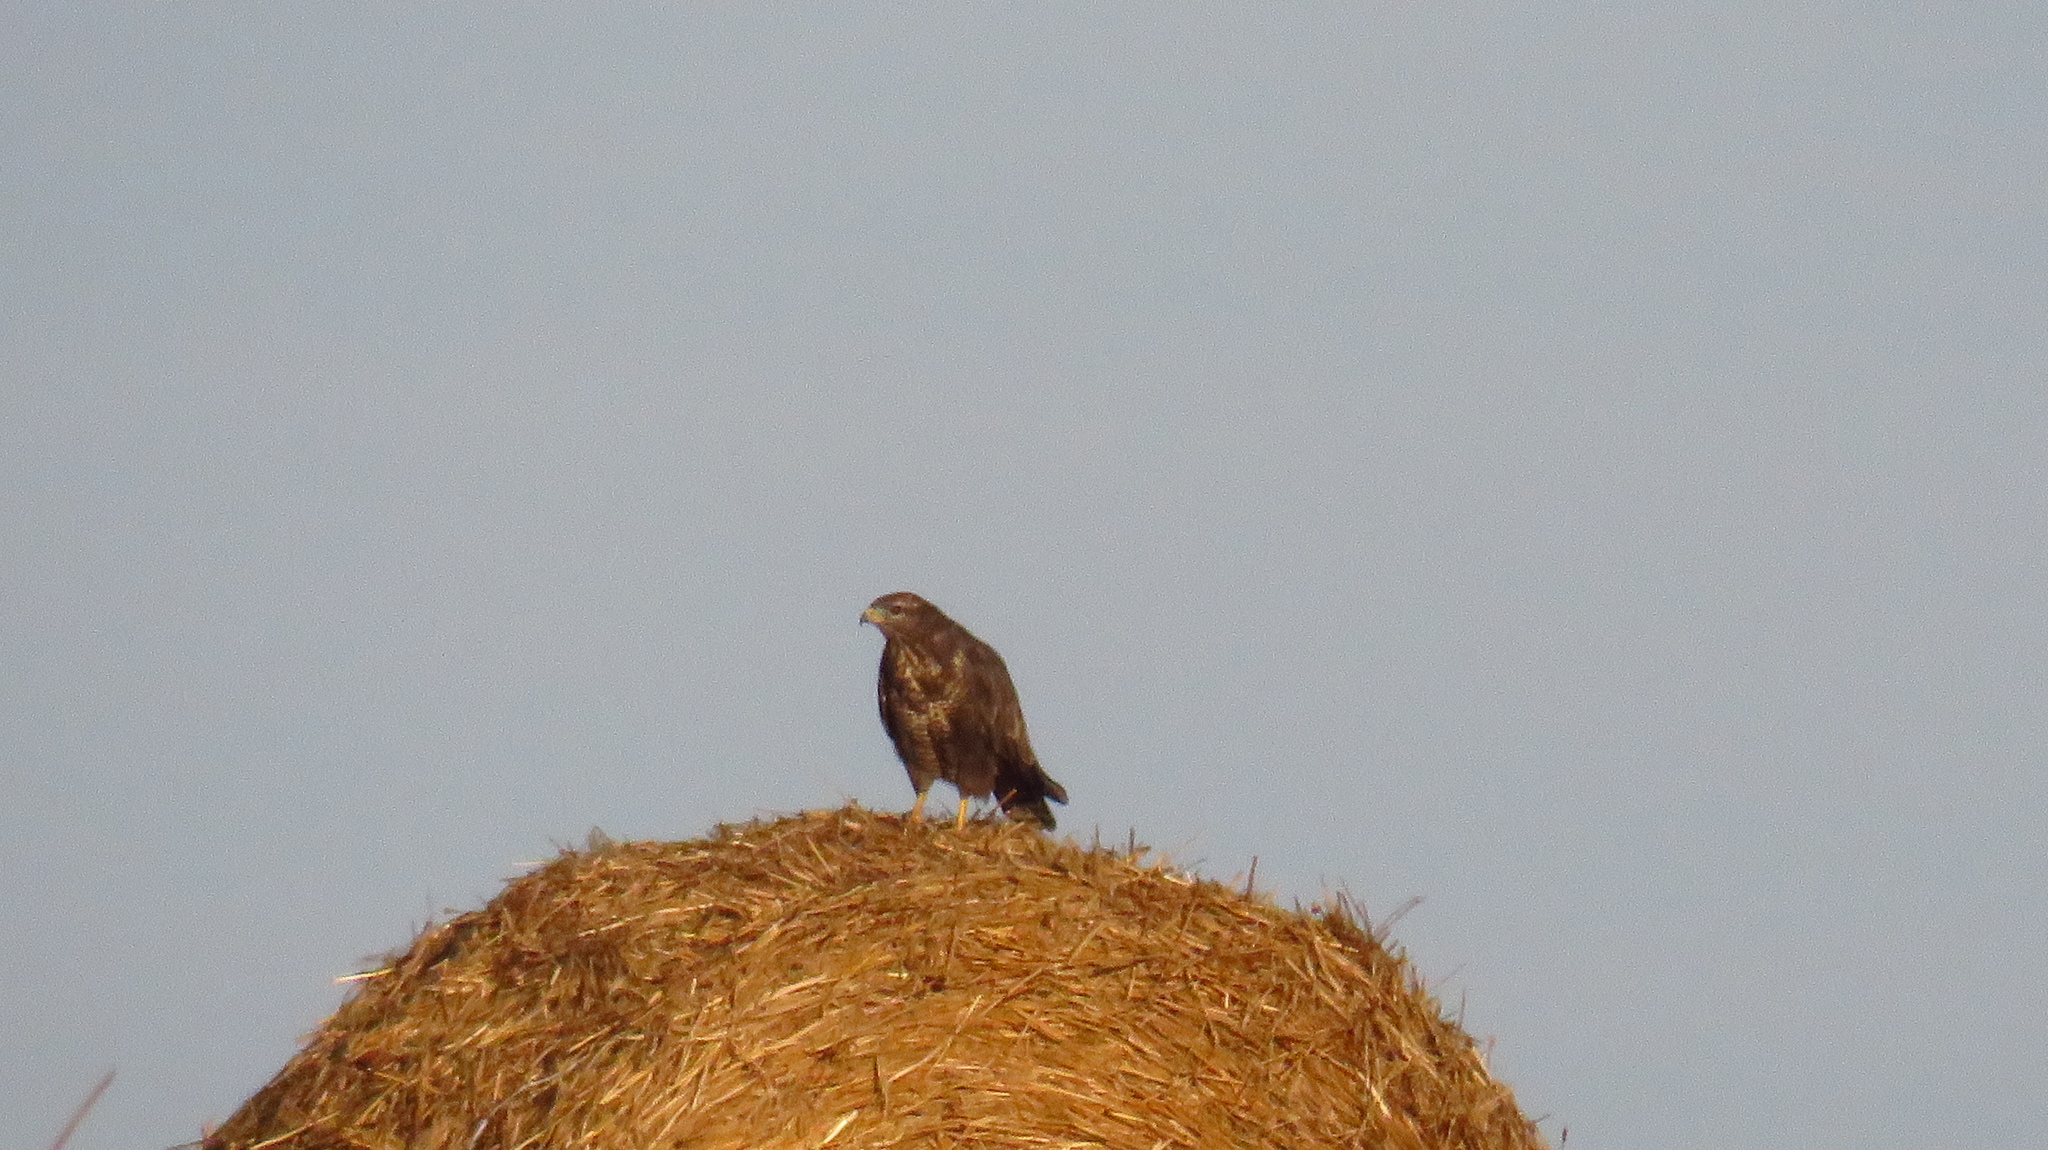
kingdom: Animalia
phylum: Chordata
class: Aves
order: Accipitriformes
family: Accipitridae
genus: Buteo
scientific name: Buteo buteo
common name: Common buzzard
